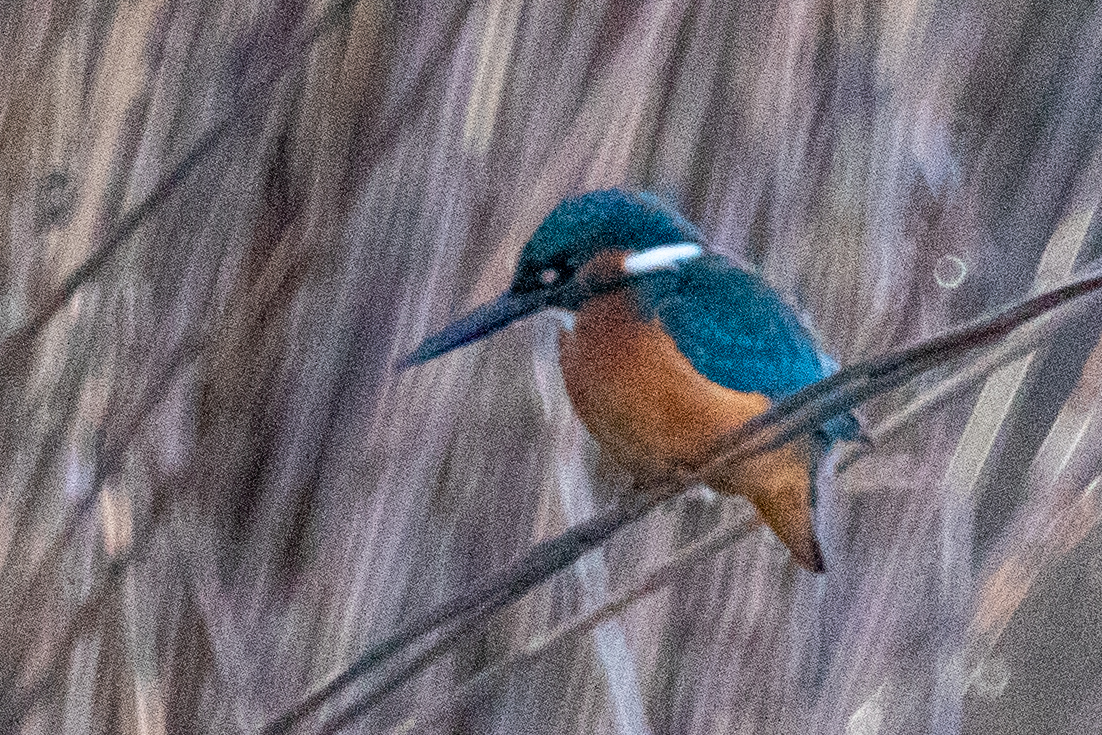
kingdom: Animalia
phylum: Chordata
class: Aves
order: Coraciiformes
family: Alcedinidae
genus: Alcedo
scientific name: Alcedo atthis
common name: Common kingfisher
